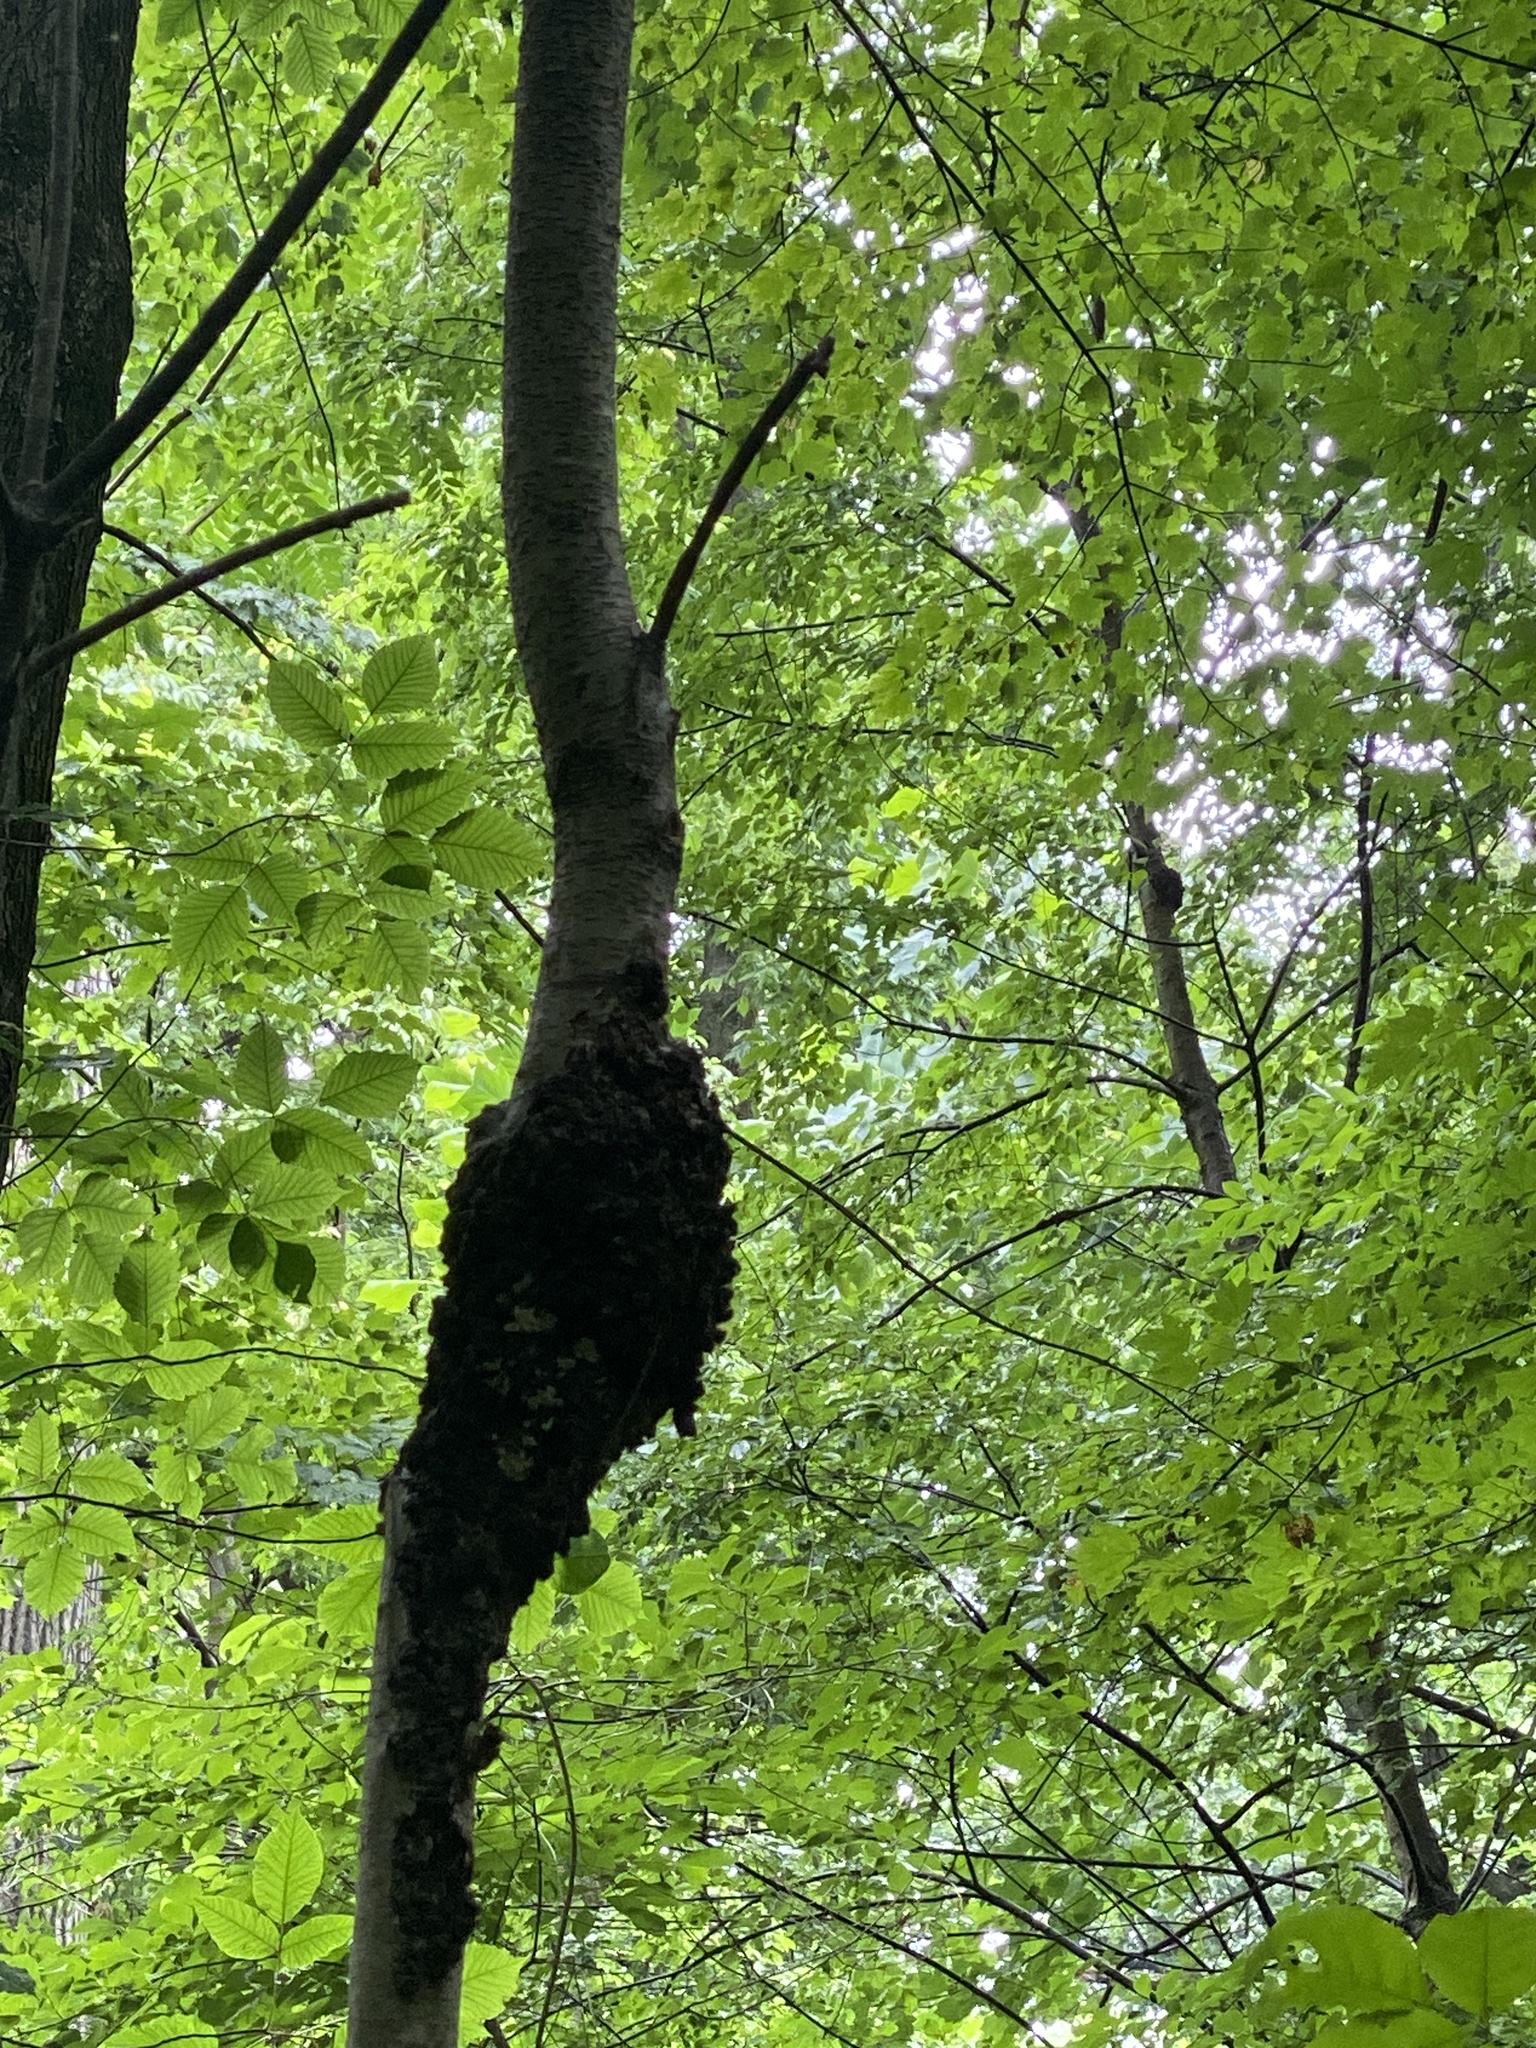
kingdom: Fungi
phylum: Ascomycota
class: Dothideomycetes
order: Venturiales
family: Venturiaceae
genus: Apiosporina
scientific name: Apiosporina morbosa
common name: Black knot
